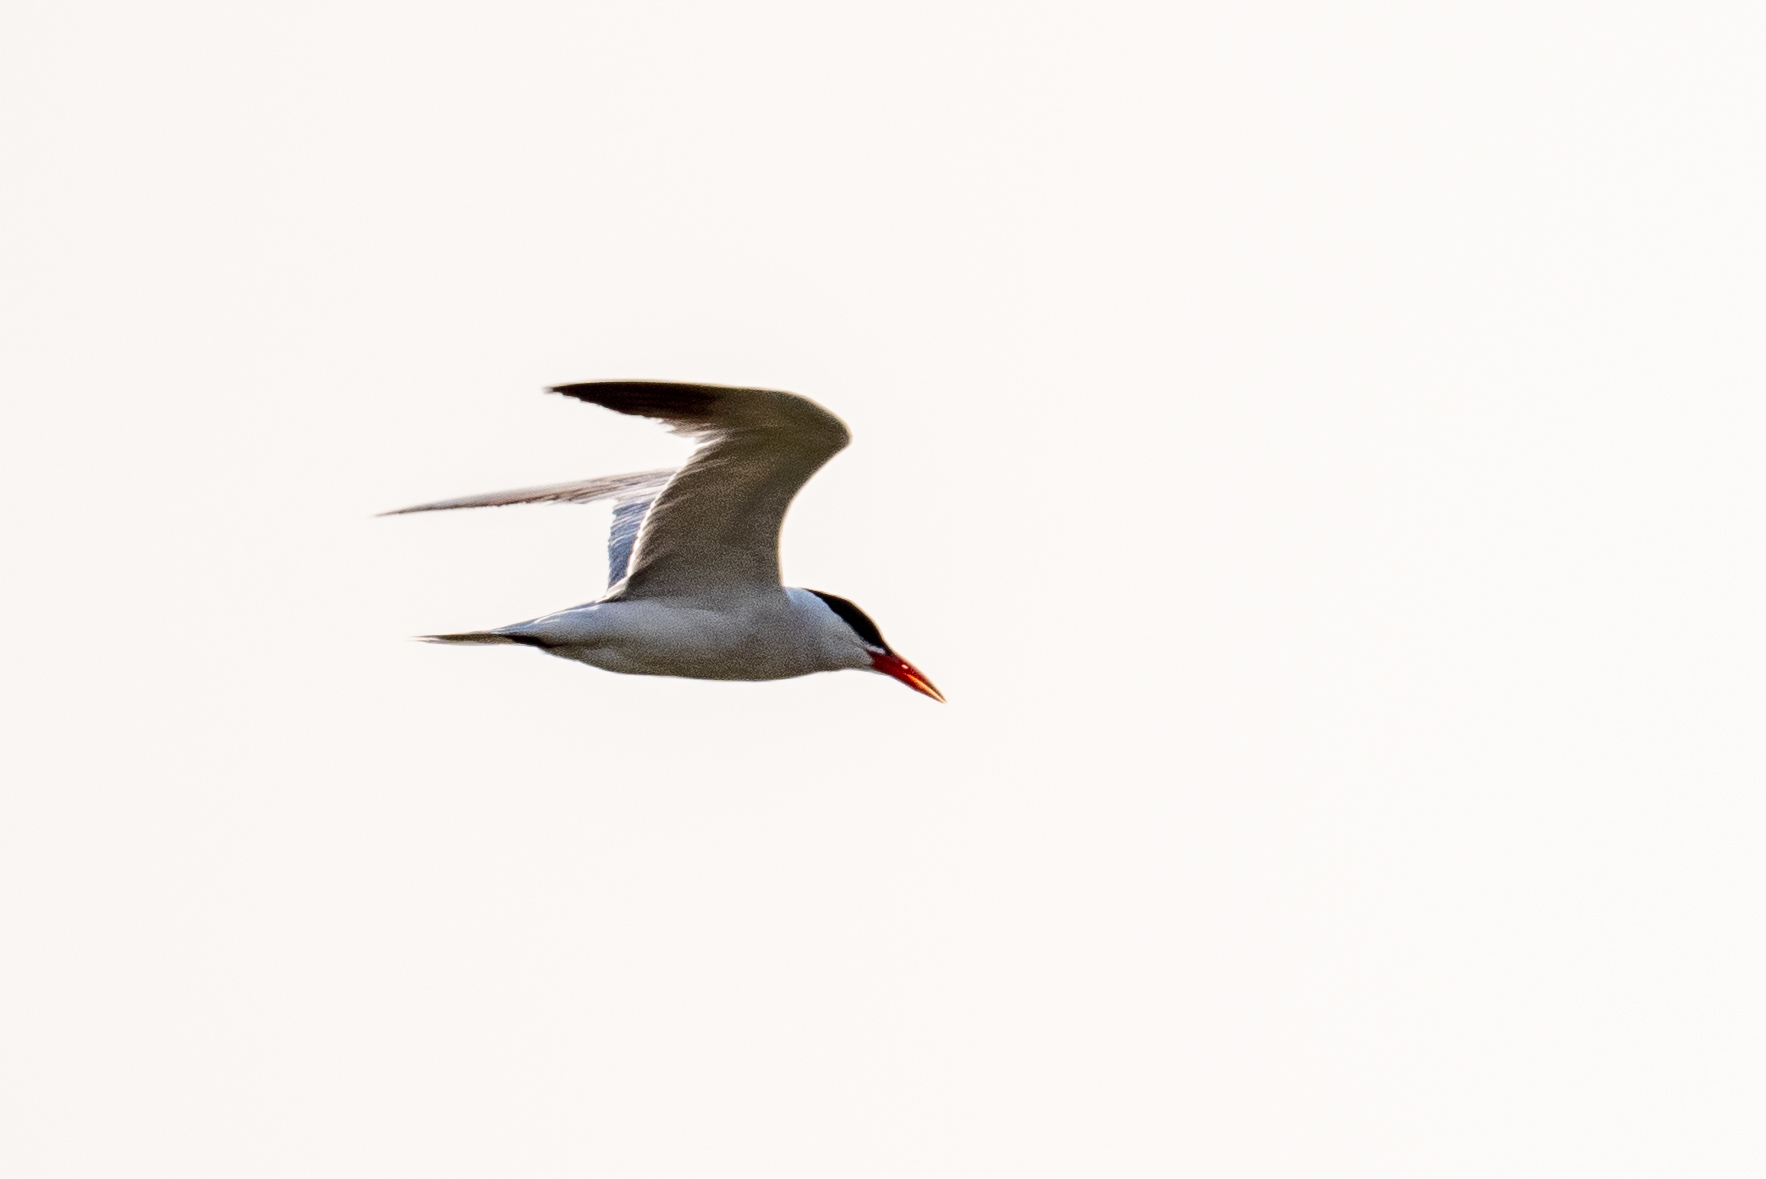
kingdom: Animalia
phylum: Chordata
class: Aves
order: Charadriiformes
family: Laridae
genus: Hydroprogne
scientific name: Hydroprogne caspia
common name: Caspian tern
